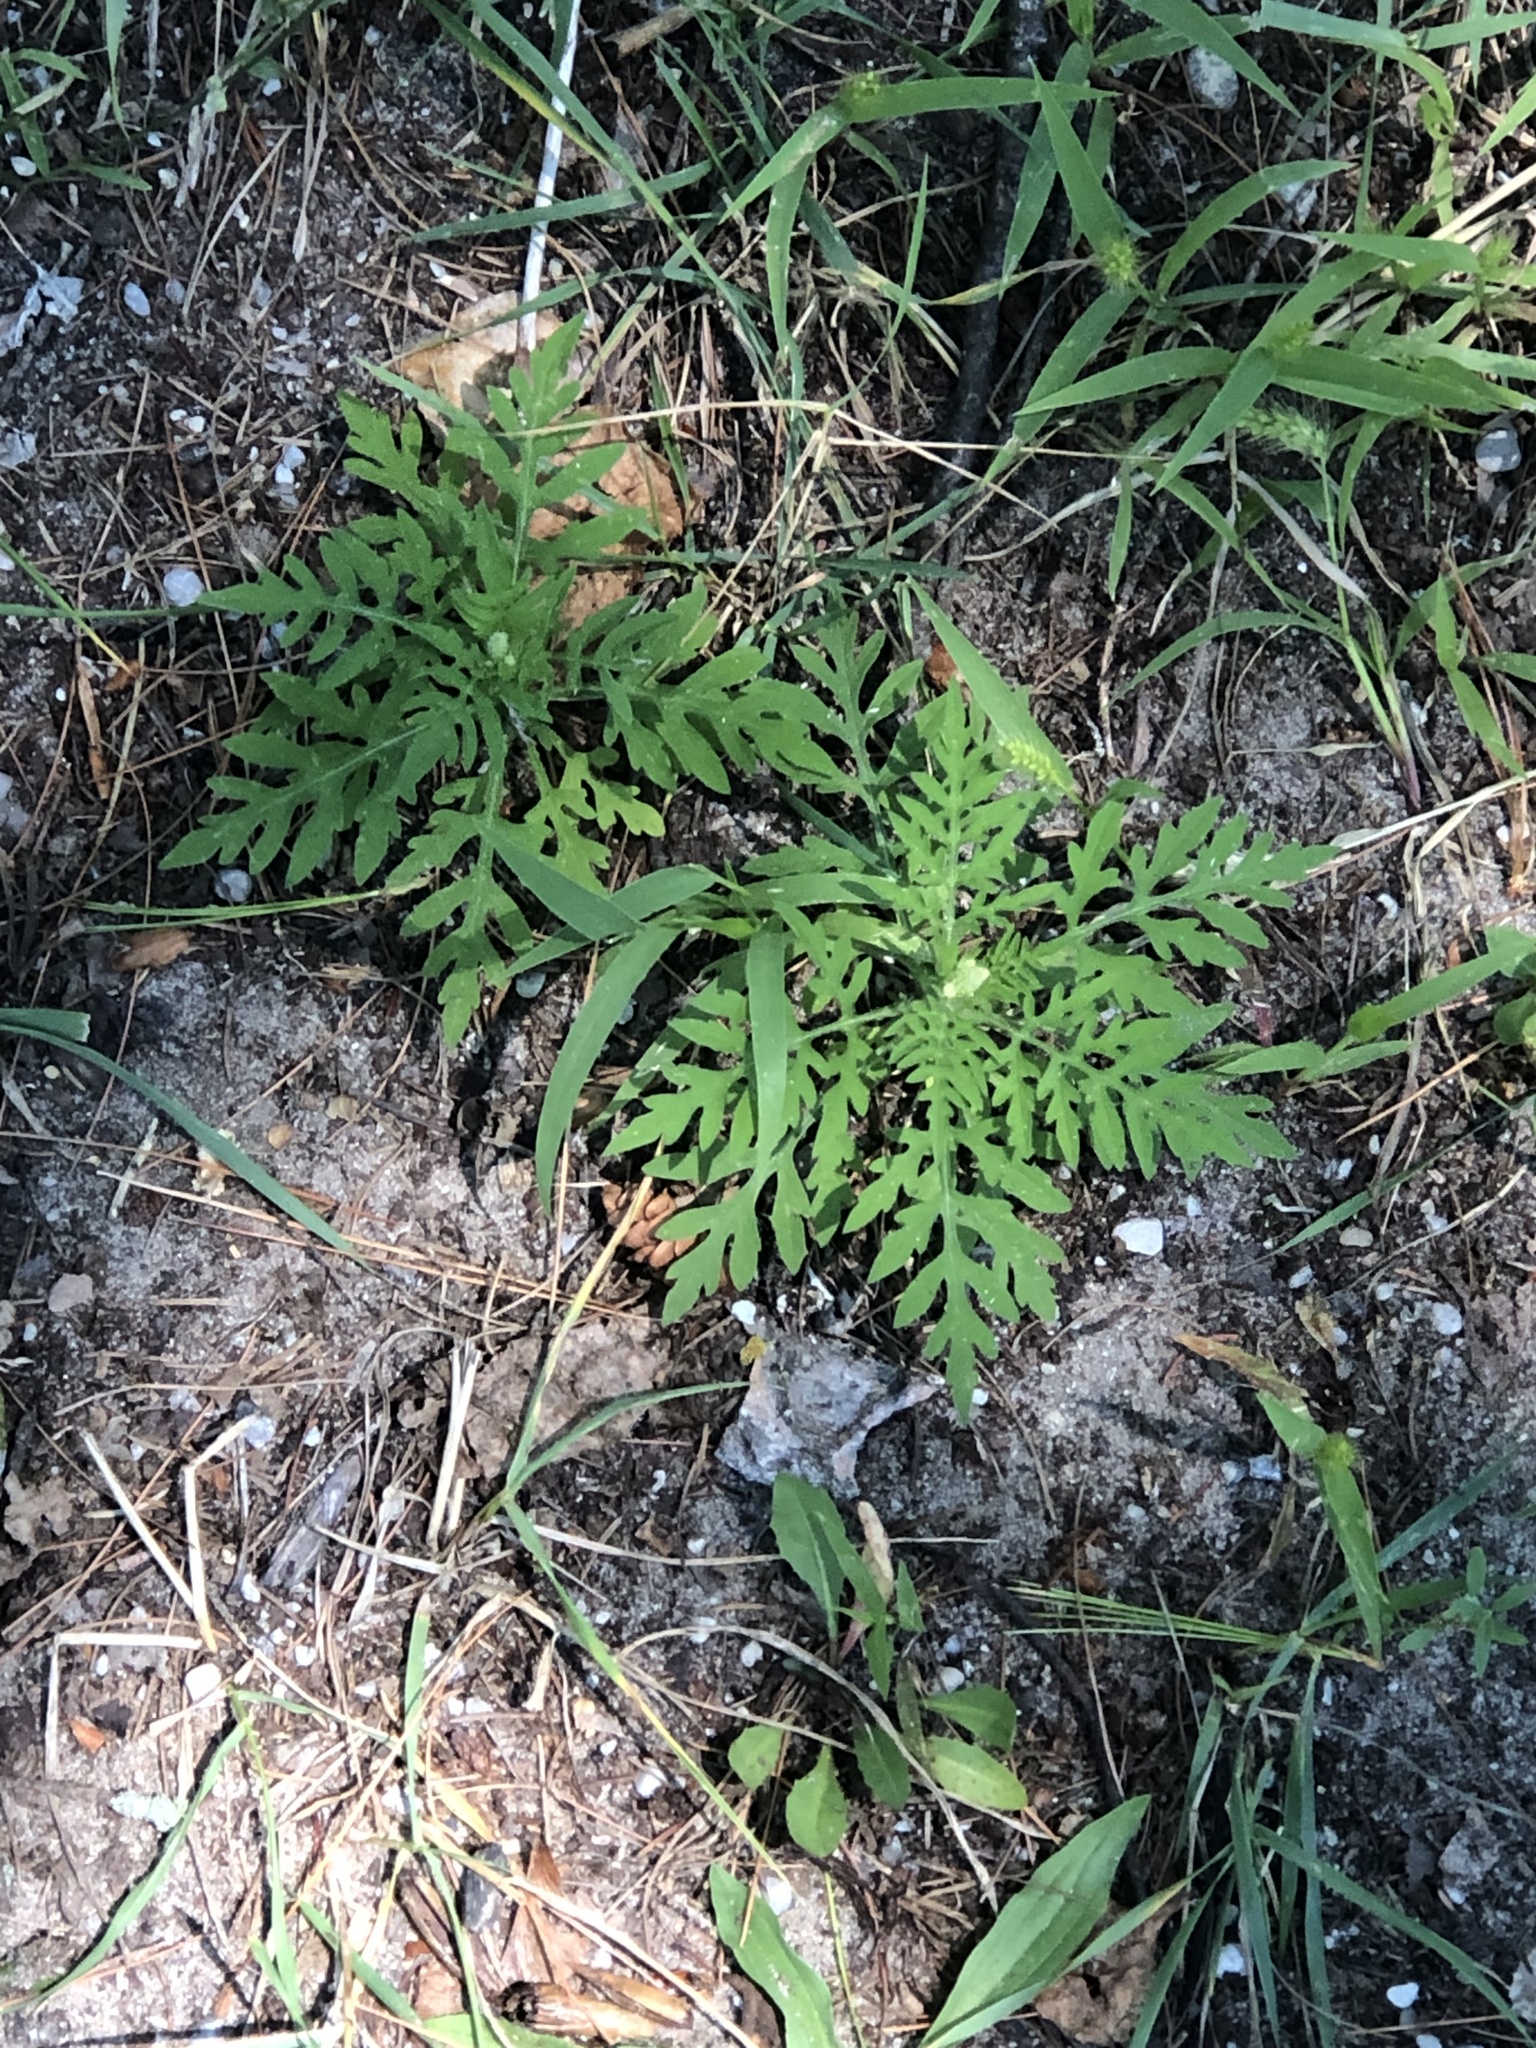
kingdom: Plantae
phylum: Tracheophyta
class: Magnoliopsida
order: Asterales
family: Asteraceae
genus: Ambrosia
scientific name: Ambrosia artemisiifolia
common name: Annual ragweed
